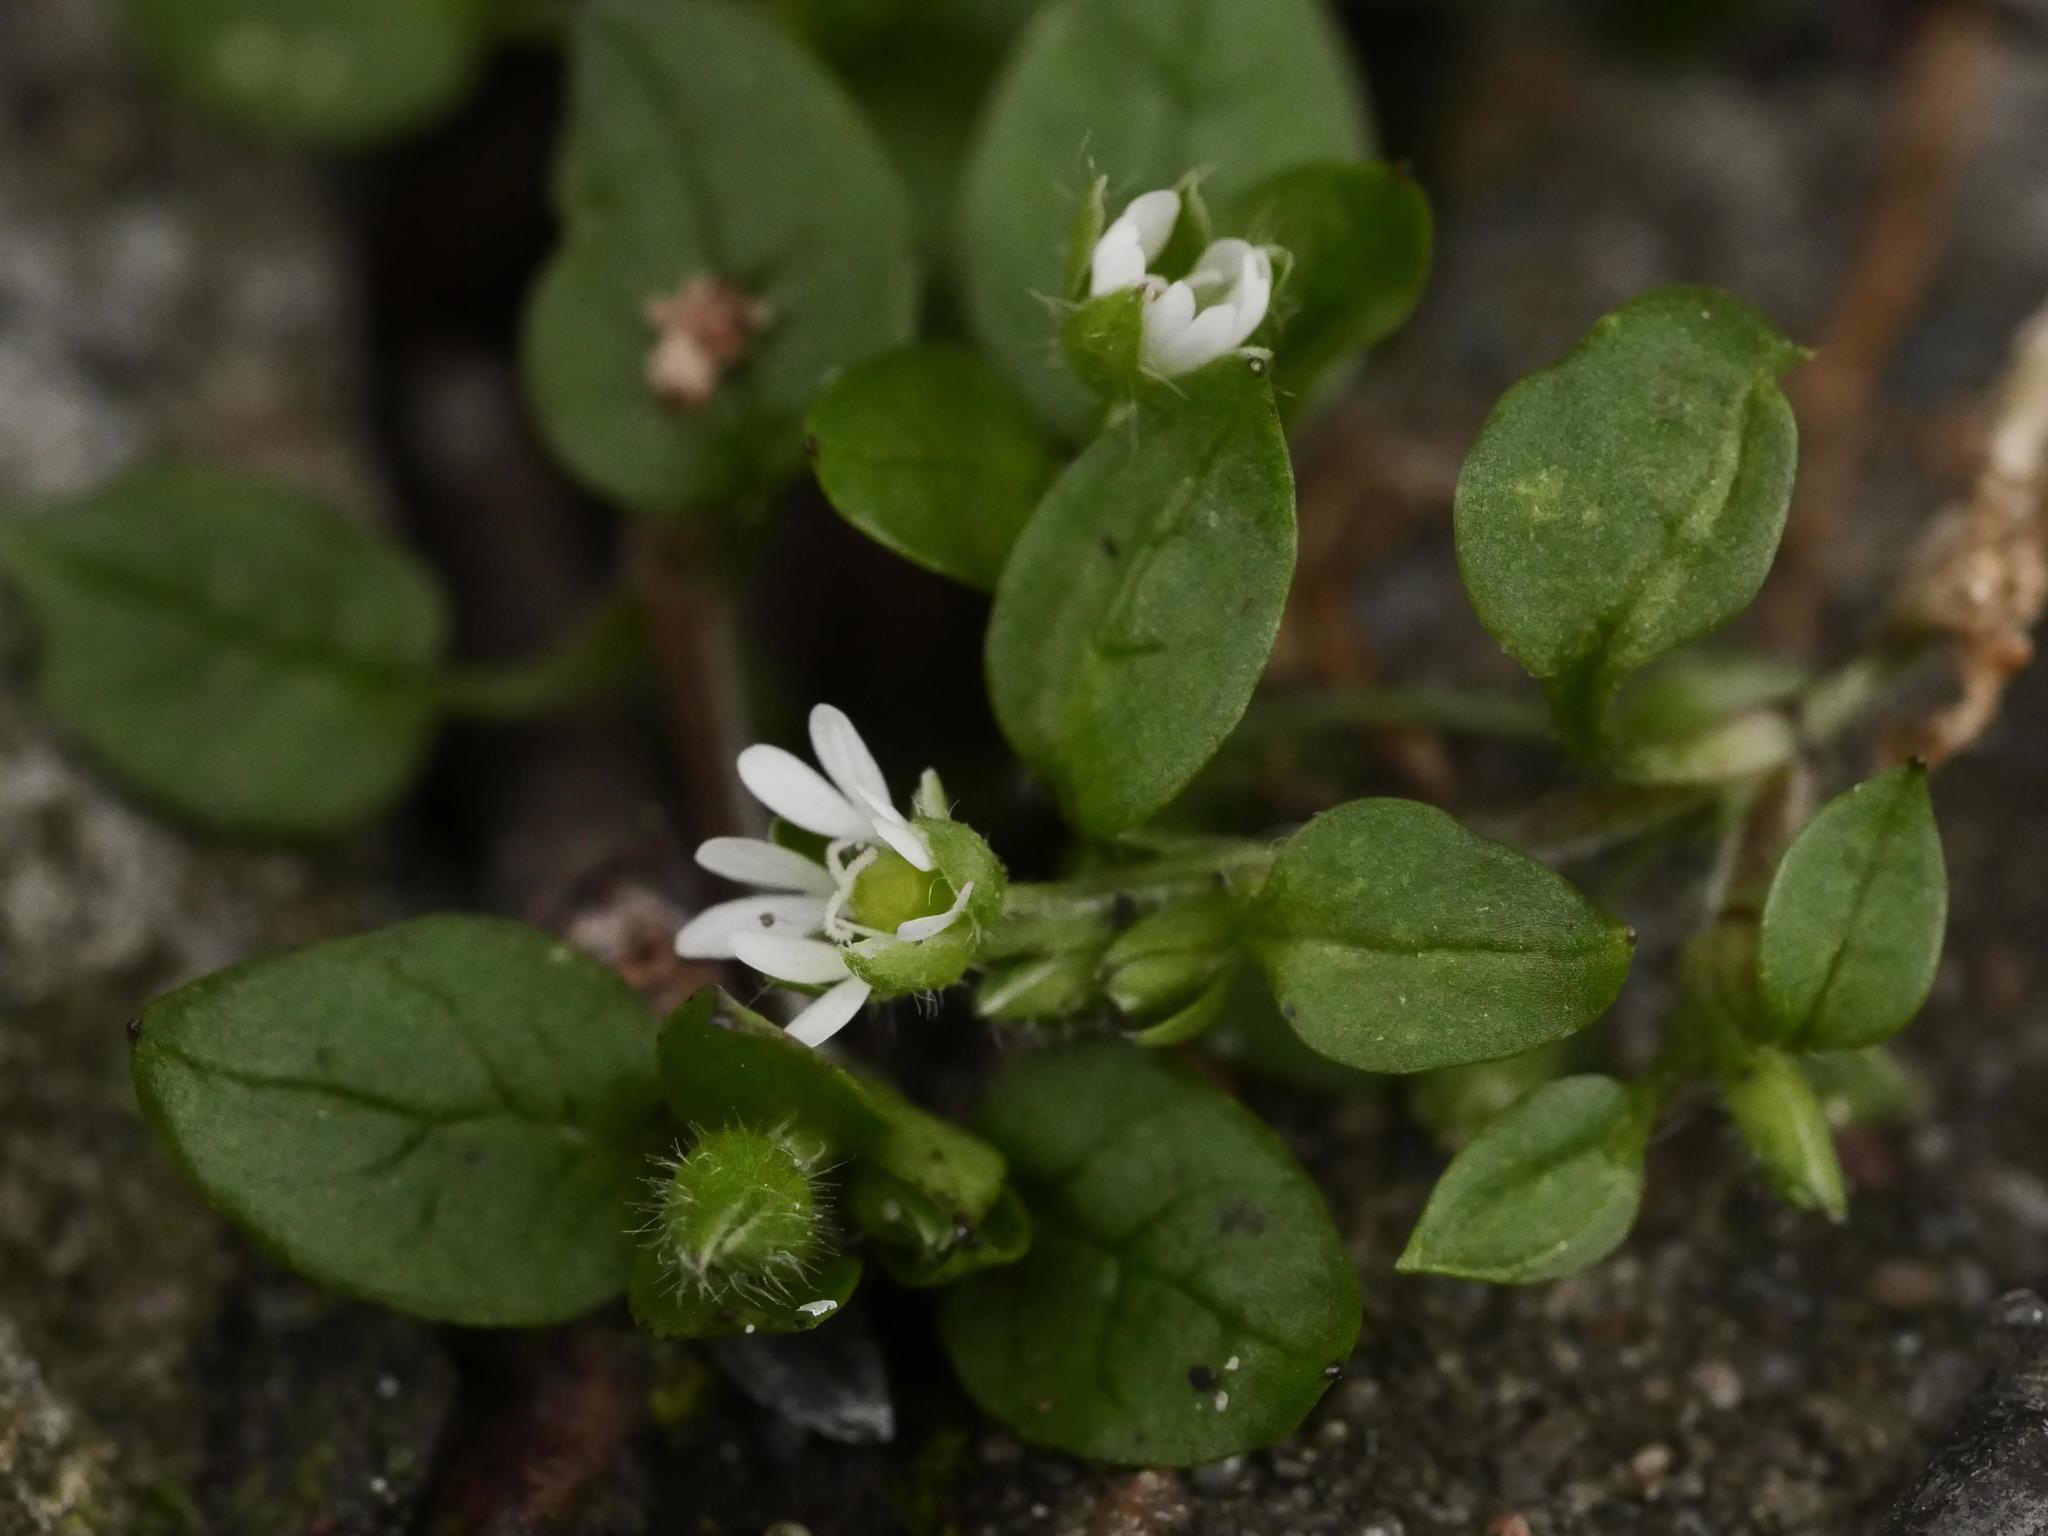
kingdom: Plantae
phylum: Tracheophyta
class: Magnoliopsida
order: Caryophyllales
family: Caryophyllaceae
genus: Stellaria
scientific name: Stellaria media
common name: Common chickweed
